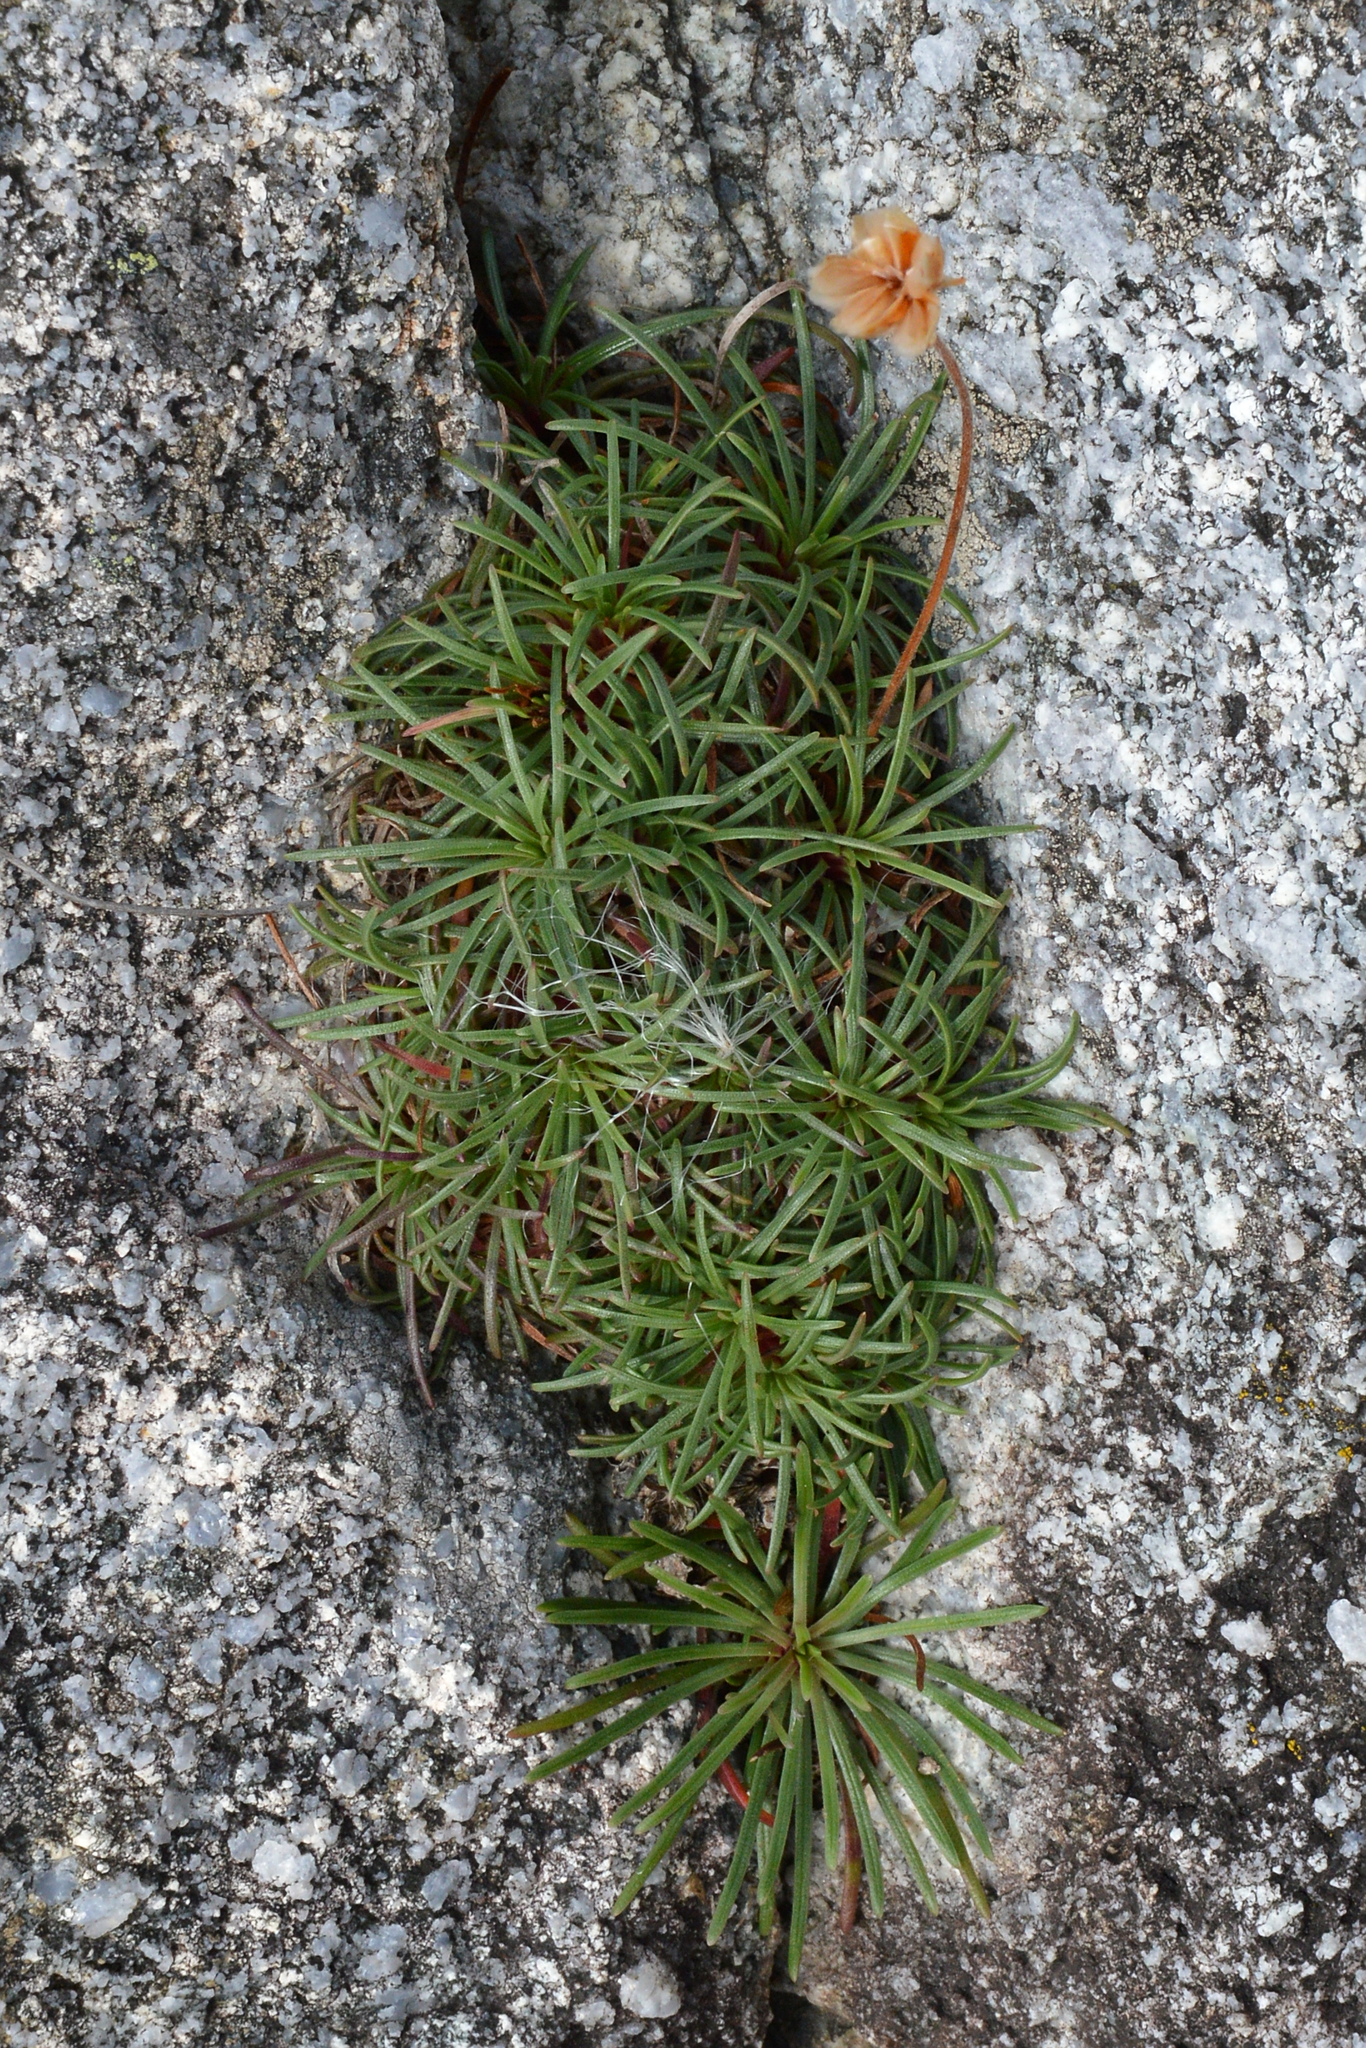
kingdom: Plantae
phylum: Tracheophyta
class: Magnoliopsida
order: Caryophyllales
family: Plumbaginaceae
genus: Armeria
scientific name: Armeria maritima
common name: Thrift
